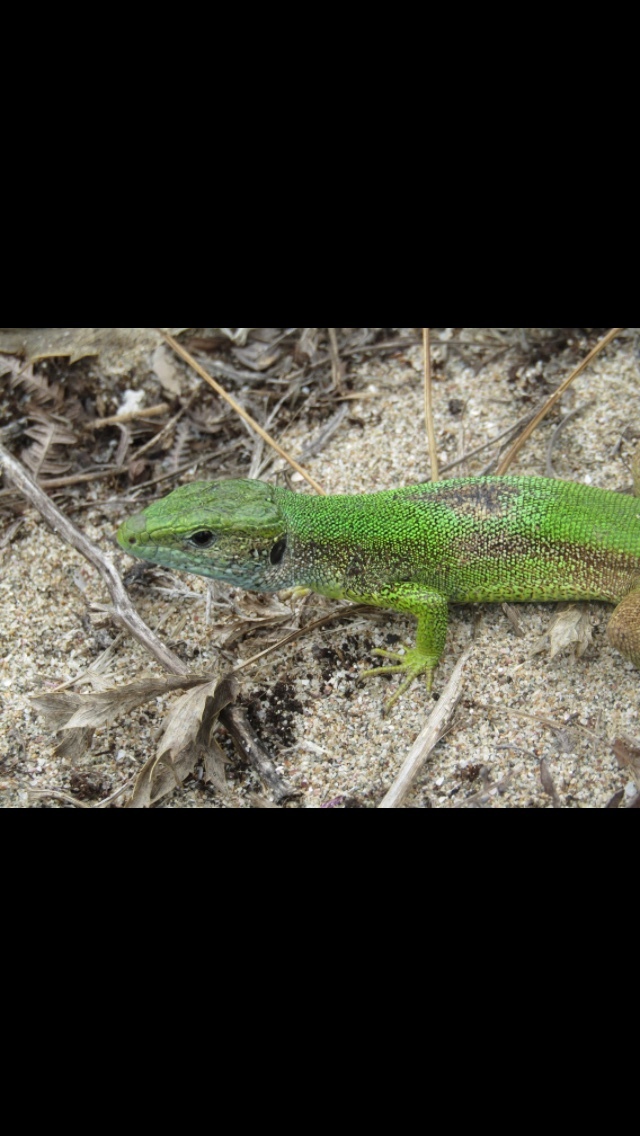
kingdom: Animalia
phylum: Chordata
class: Squamata
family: Lacertidae
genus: Lacerta
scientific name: Lacerta viridis
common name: European green lizard
